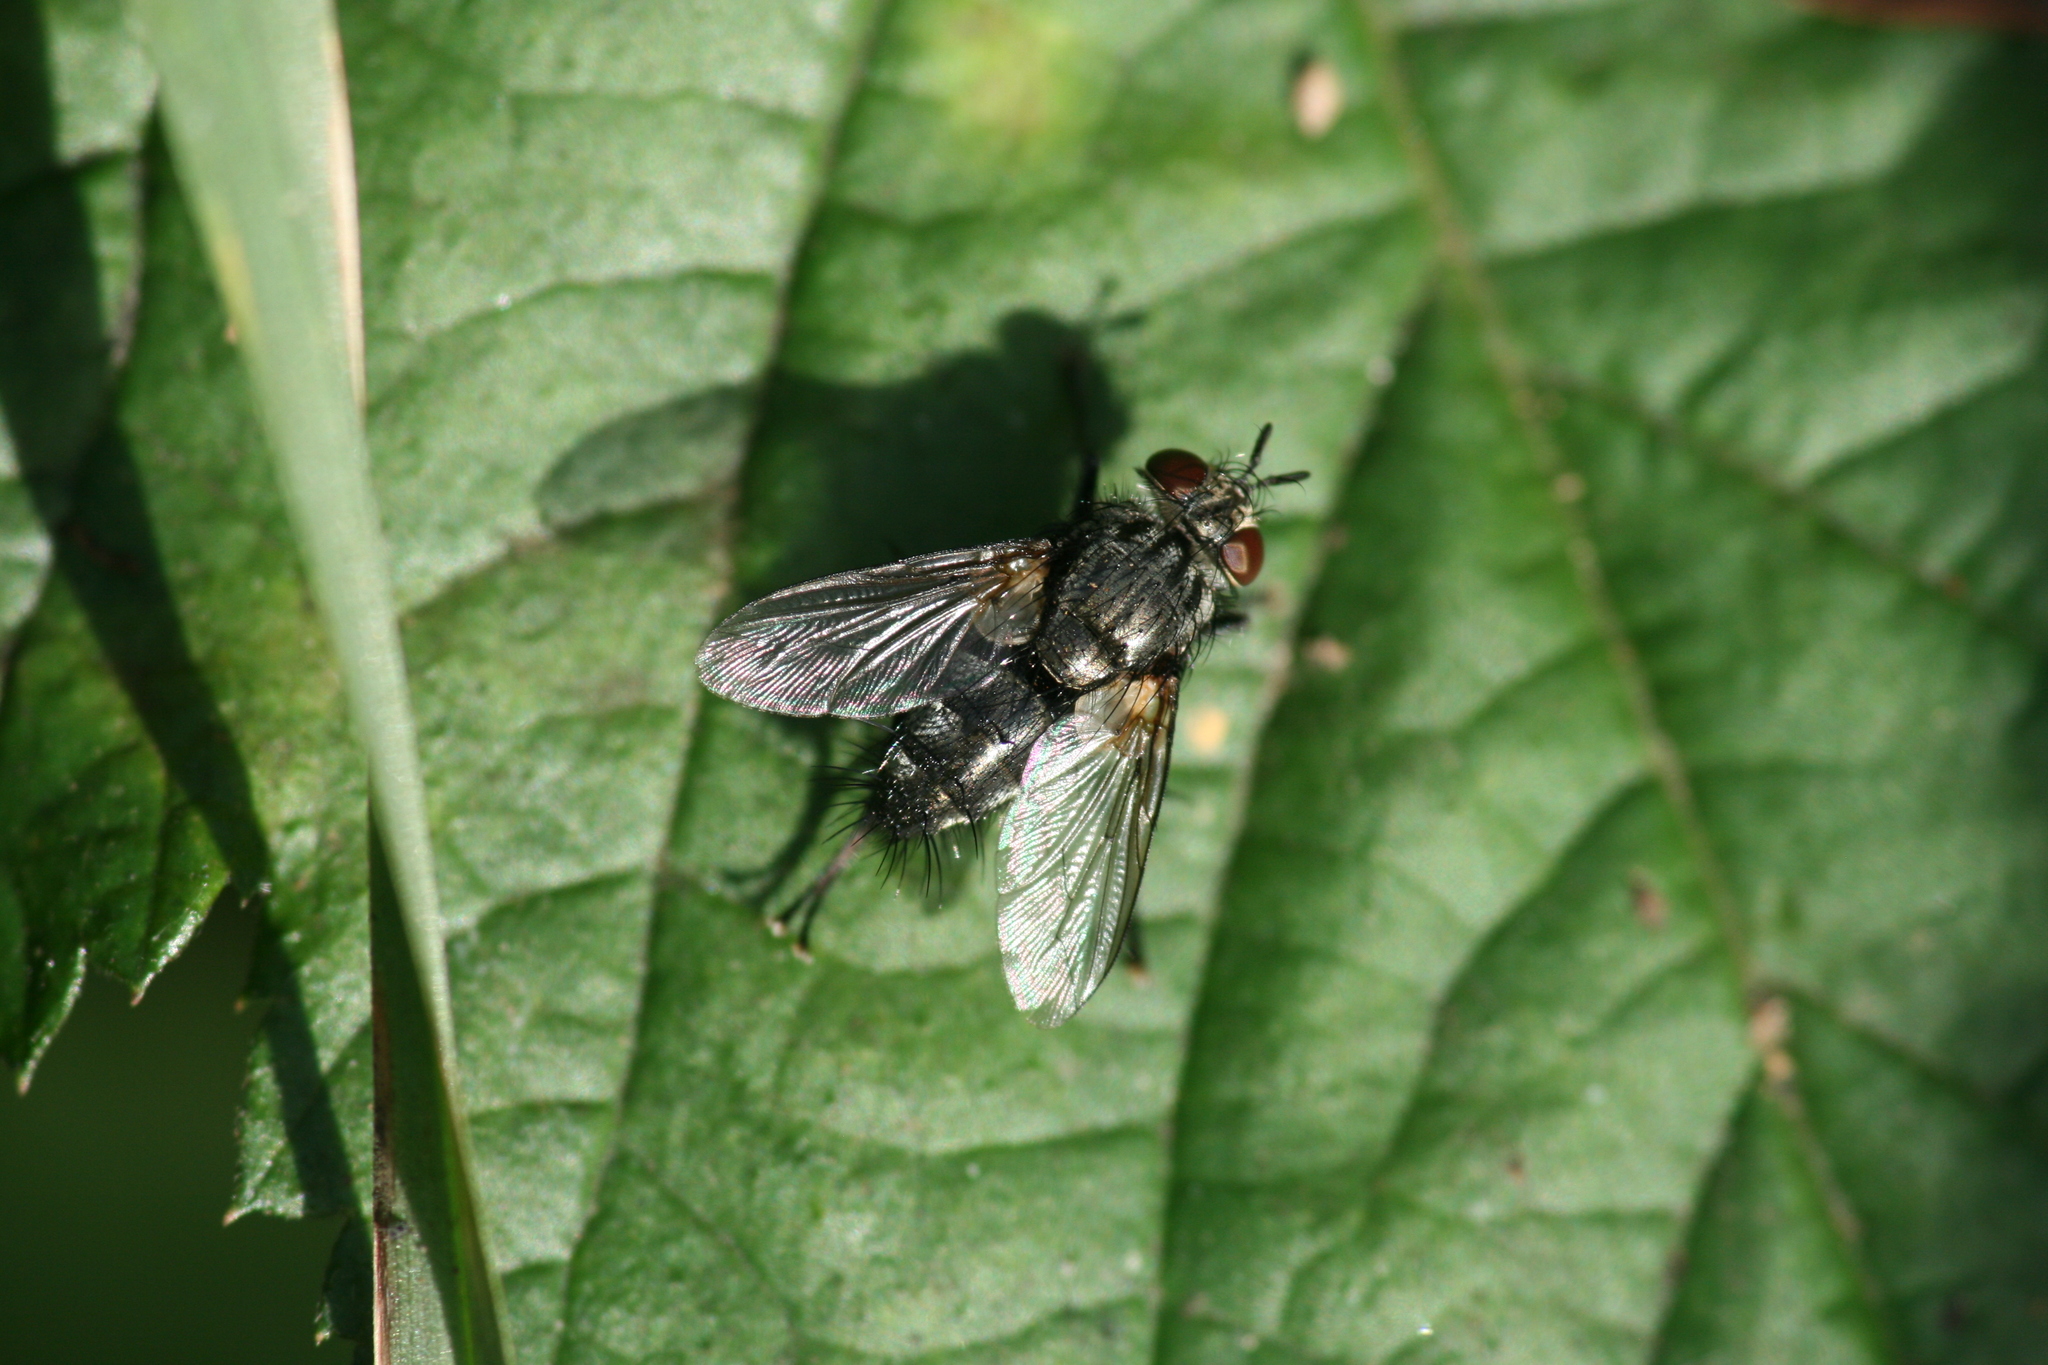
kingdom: Animalia
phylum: Arthropoda
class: Insecta
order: Diptera
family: Tachinidae
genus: Voria
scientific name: Voria ruralis
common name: Parasitic fly
